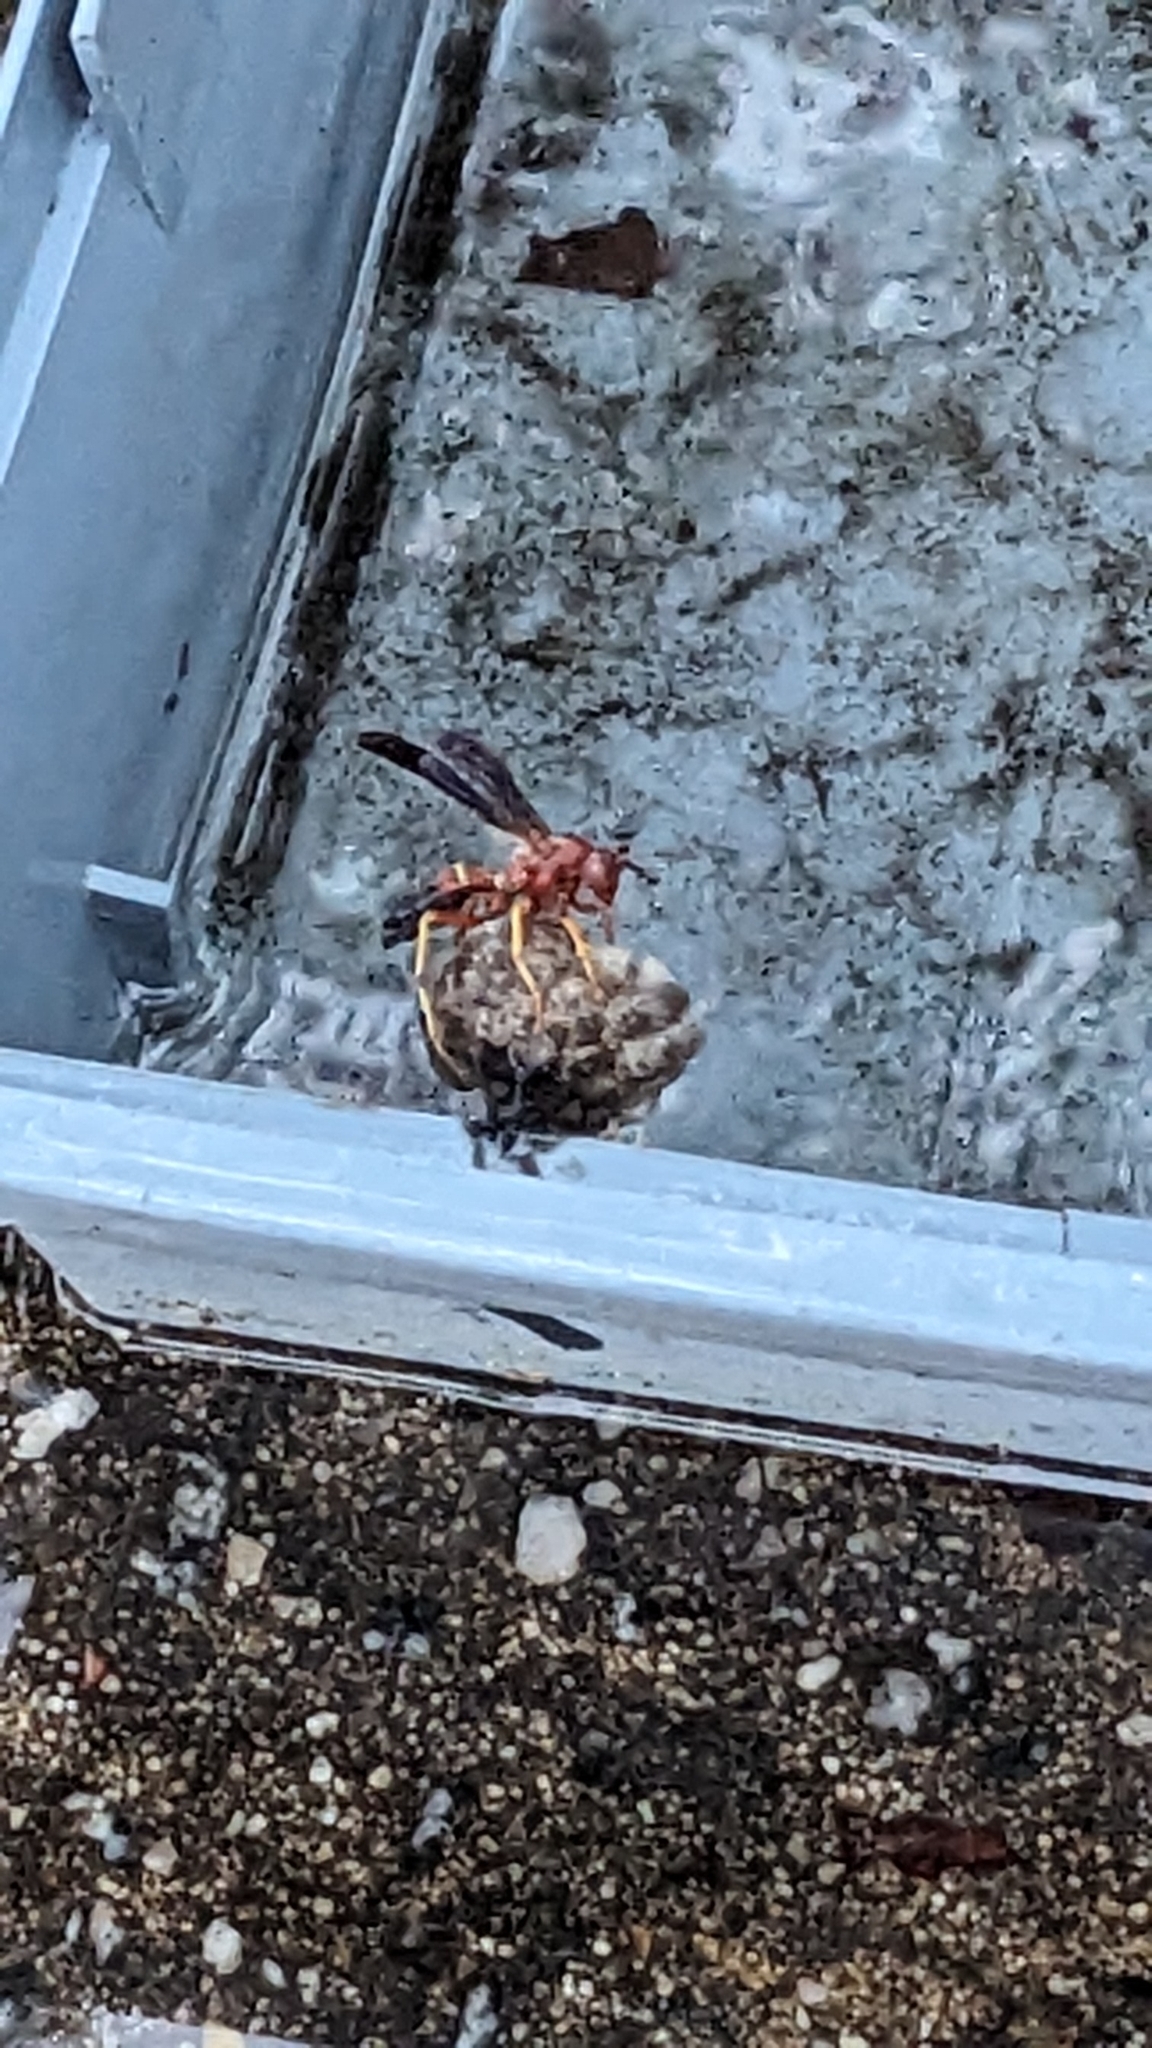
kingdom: Animalia
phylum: Arthropoda
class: Insecta
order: Hymenoptera
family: Eumenidae
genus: Polistes
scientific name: Polistes metricus
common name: Metric paper wasp
